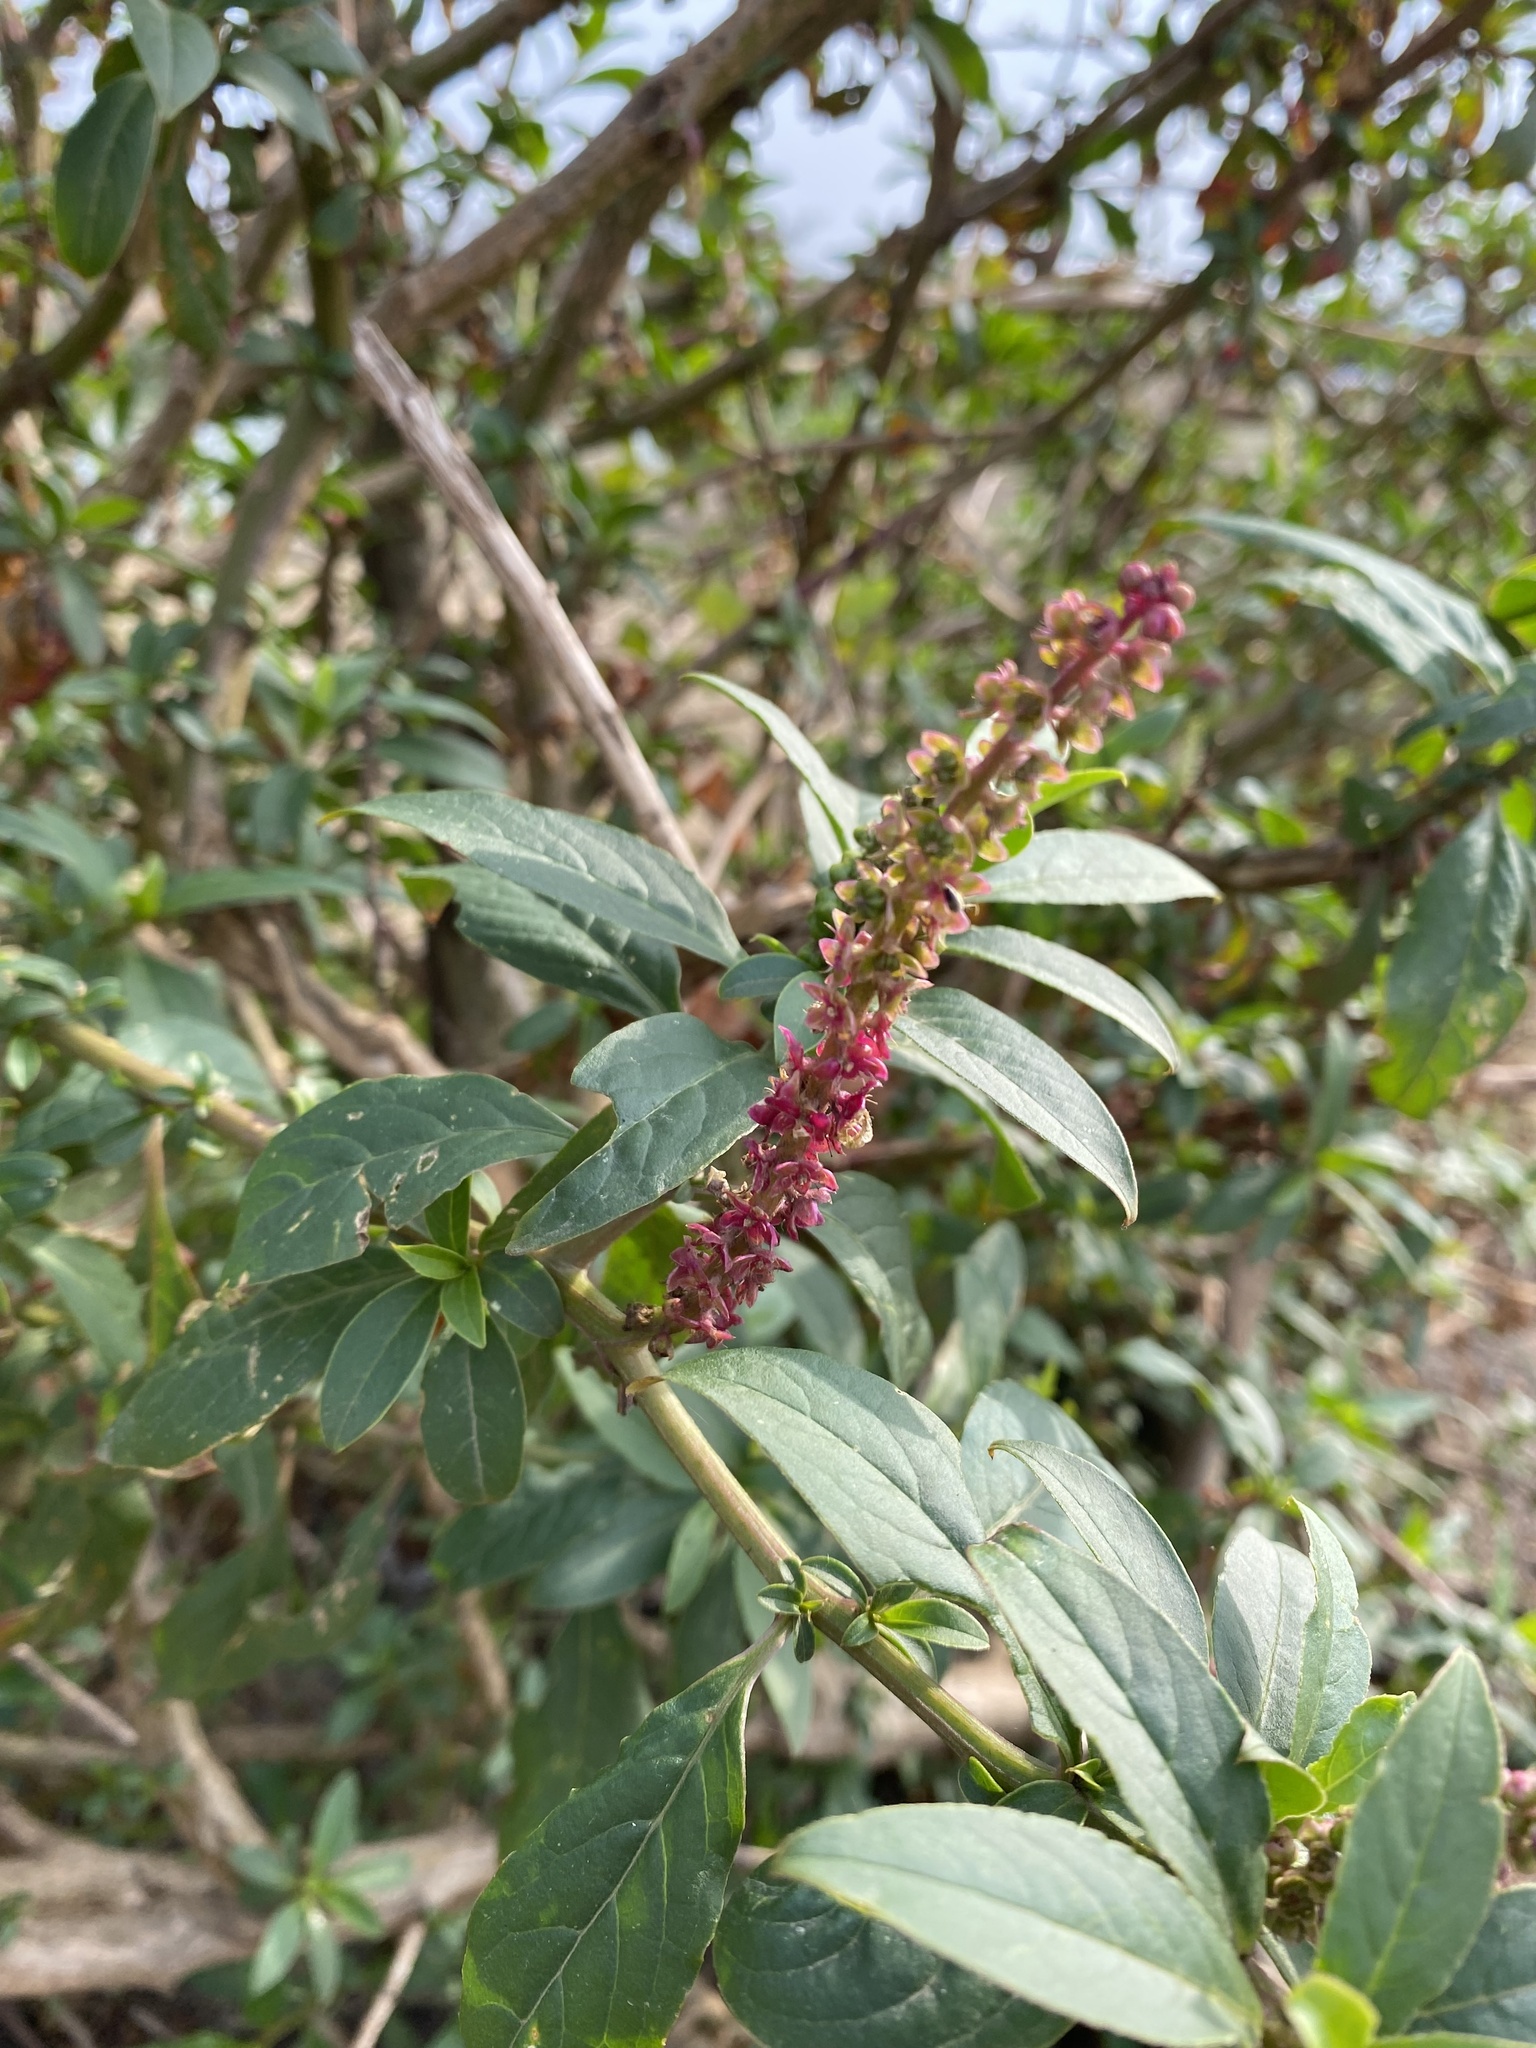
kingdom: Plantae
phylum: Tracheophyta
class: Magnoliopsida
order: Caryophyllales
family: Phytolaccaceae
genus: Phytolacca
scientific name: Phytolacca icosandra
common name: Button pokeweed
